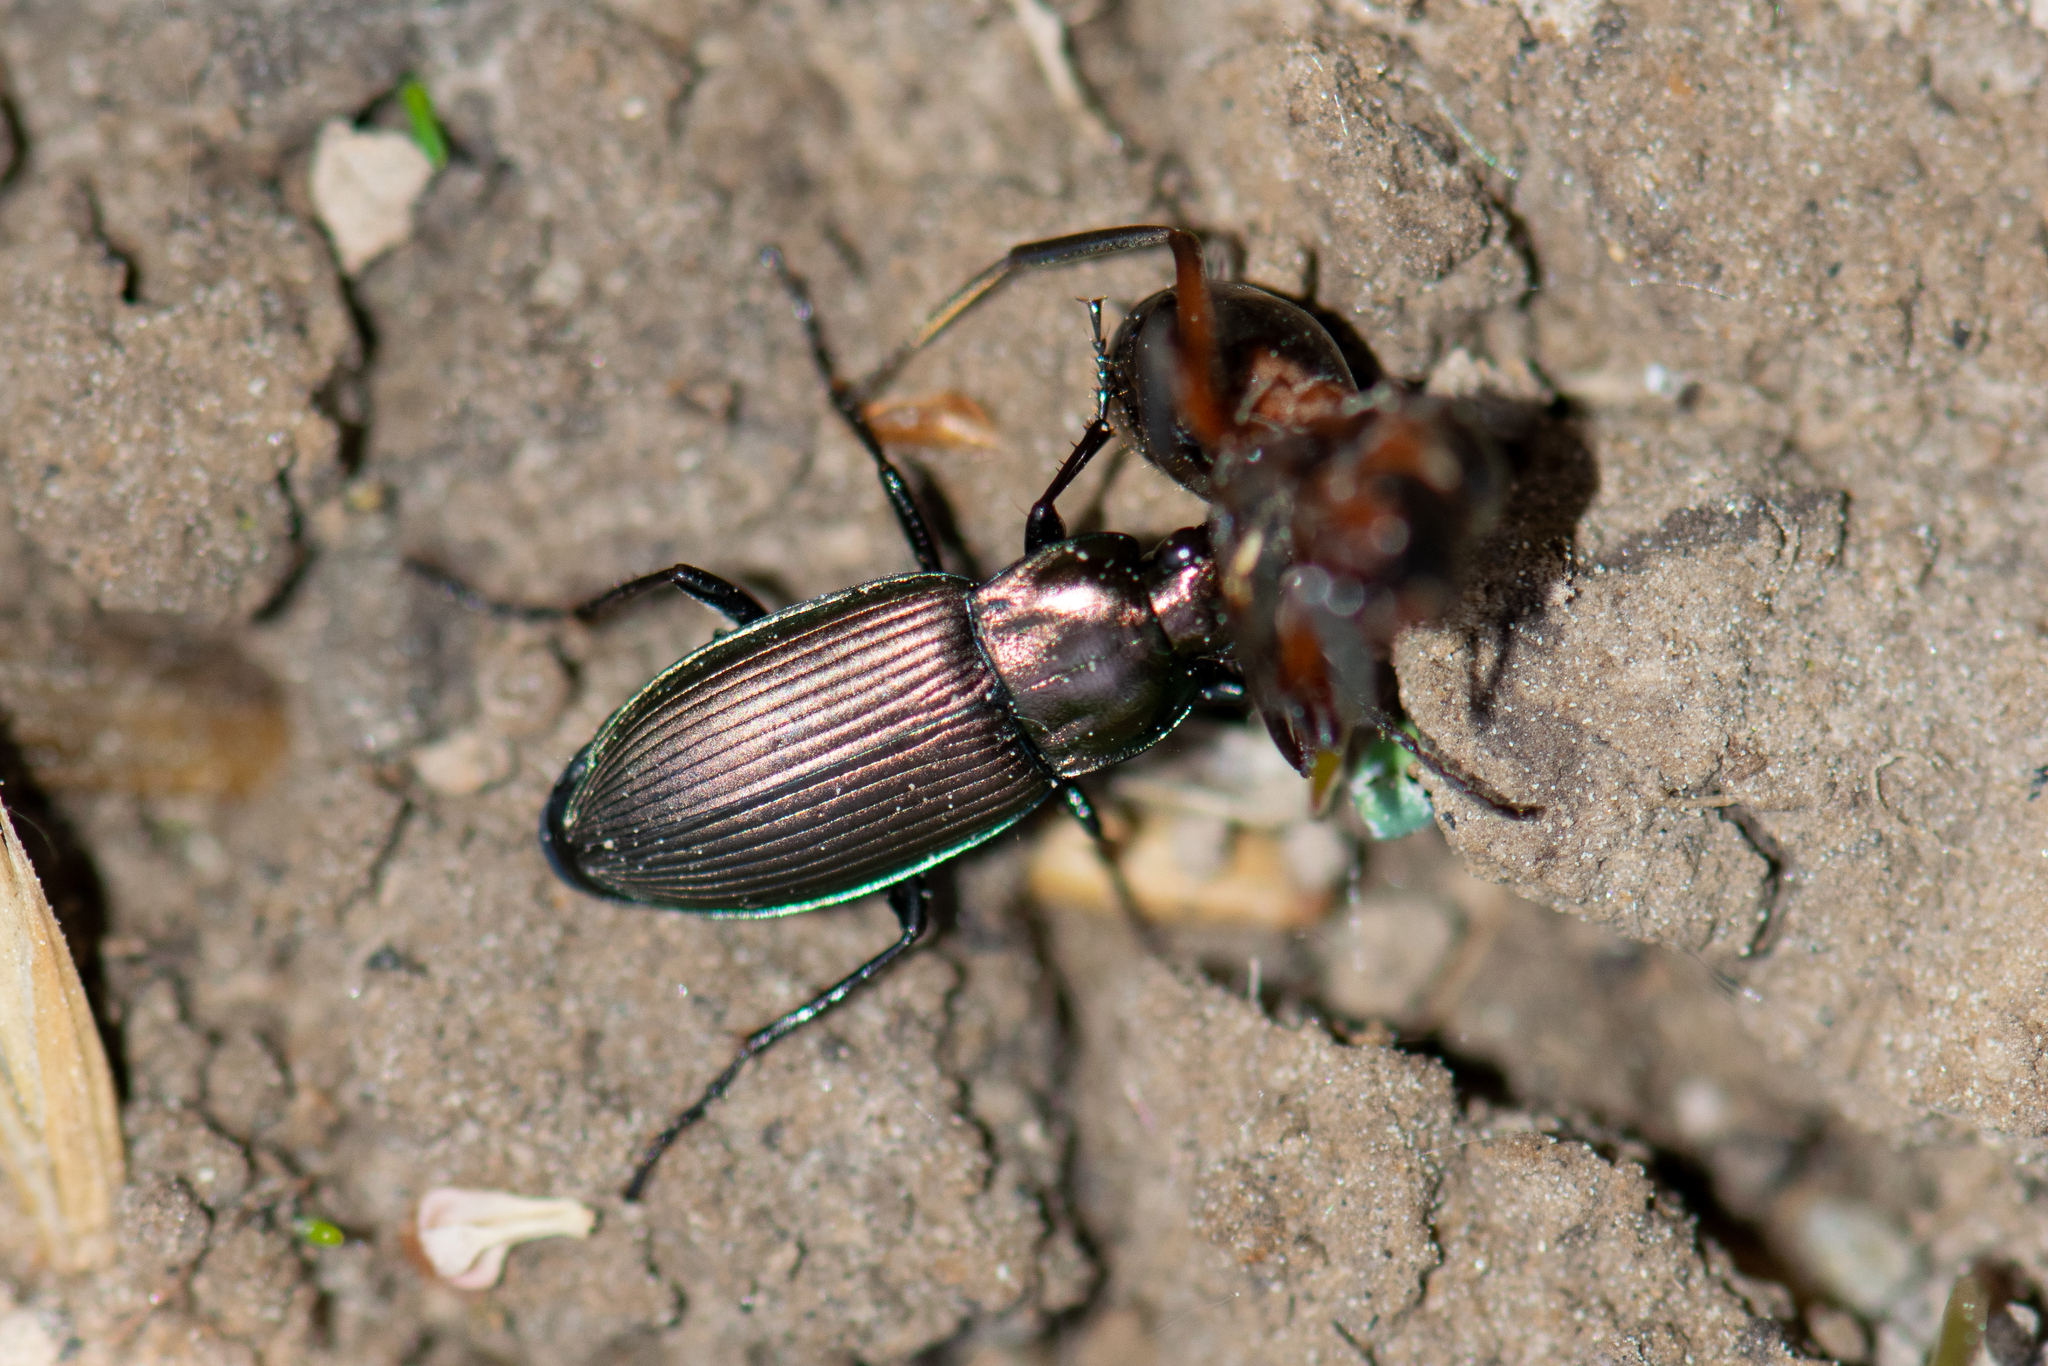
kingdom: Animalia
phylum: Arthropoda
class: Insecta
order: Coleoptera
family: Carabidae
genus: Poecilus
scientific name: Poecilus cupreus
